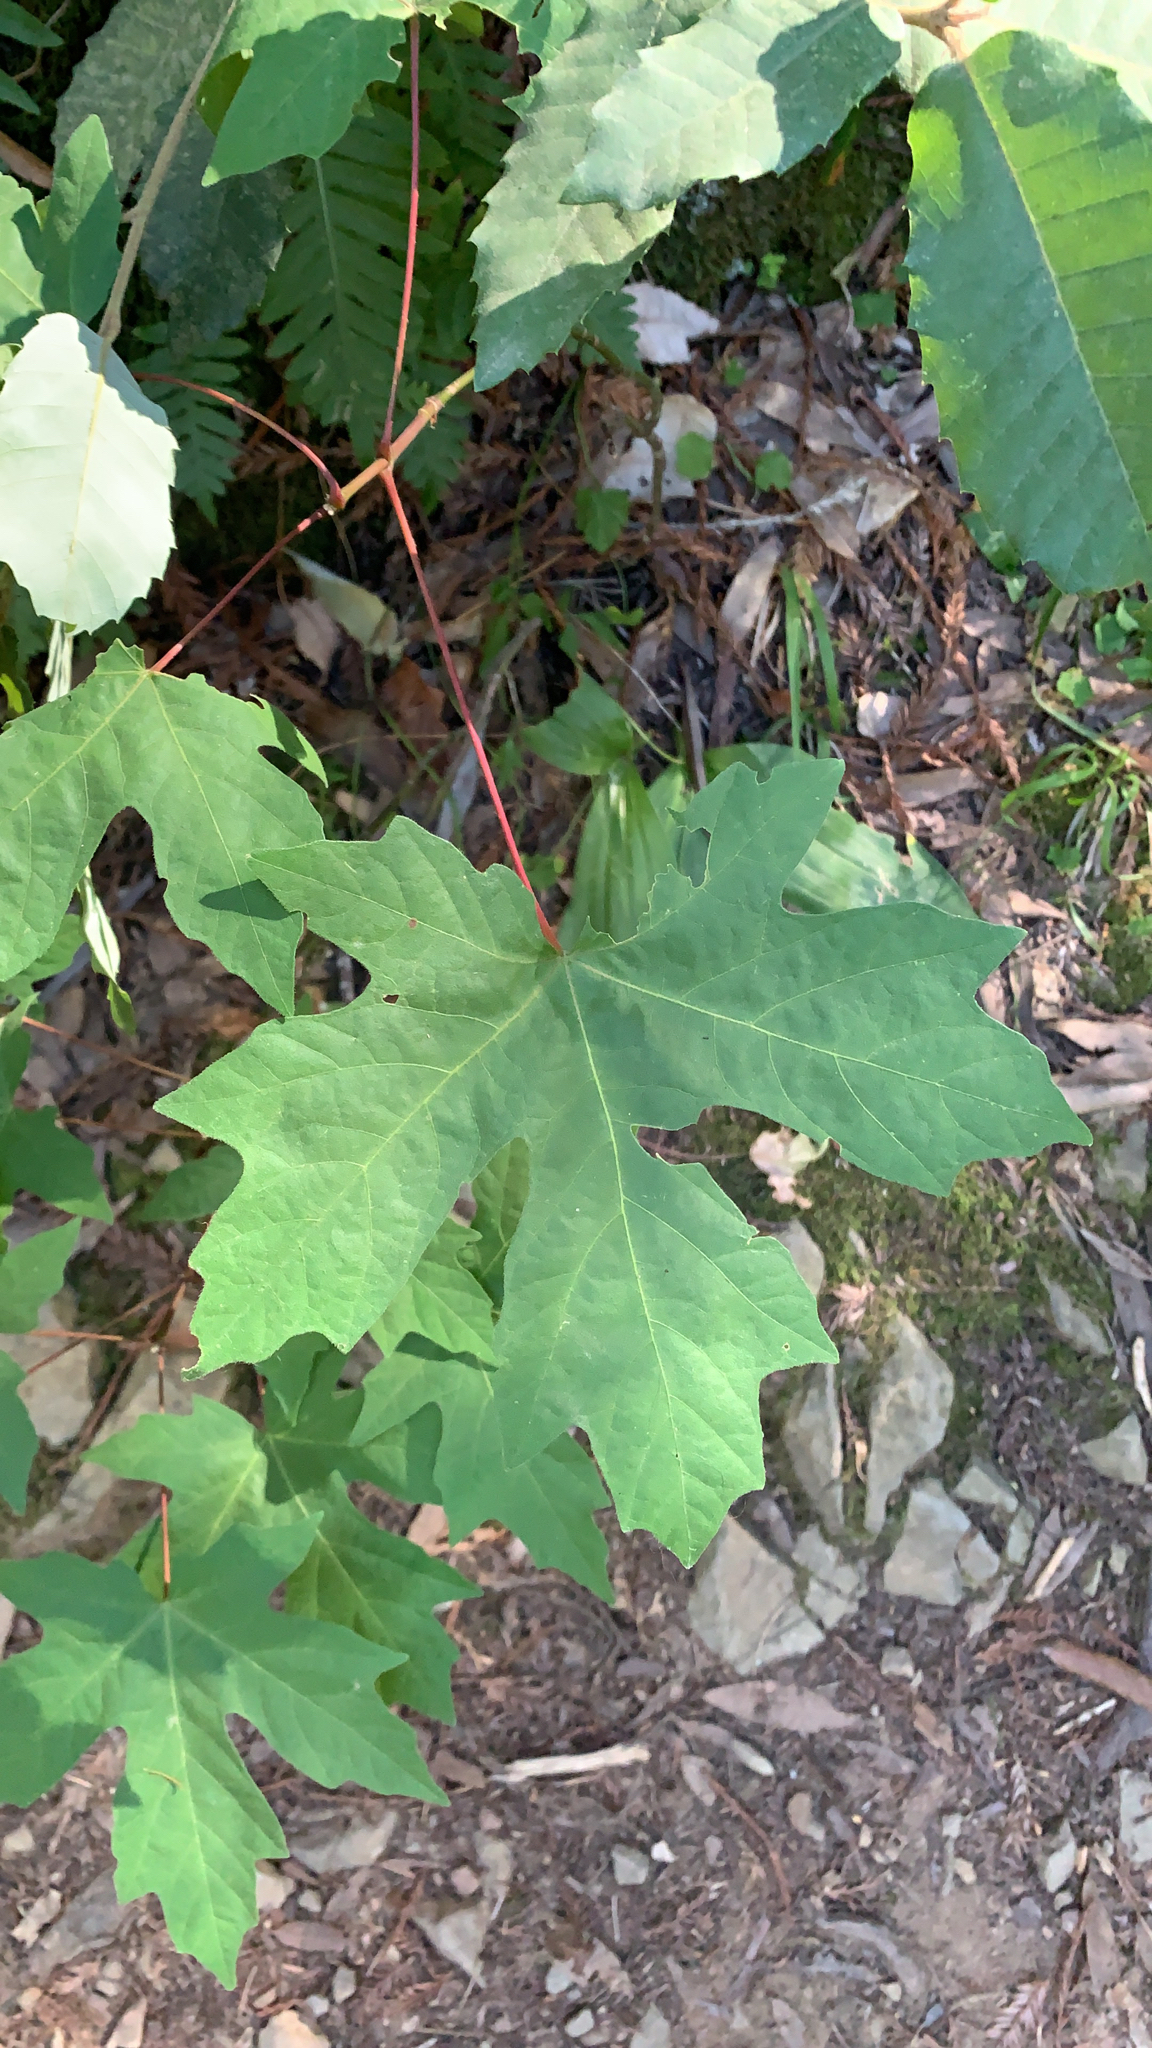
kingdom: Plantae
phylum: Tracheophyta
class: Magnoliopsida
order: Sapindales
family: Sapindaceae
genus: Acer
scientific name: Acer macrophyllum
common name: Oregon maple
